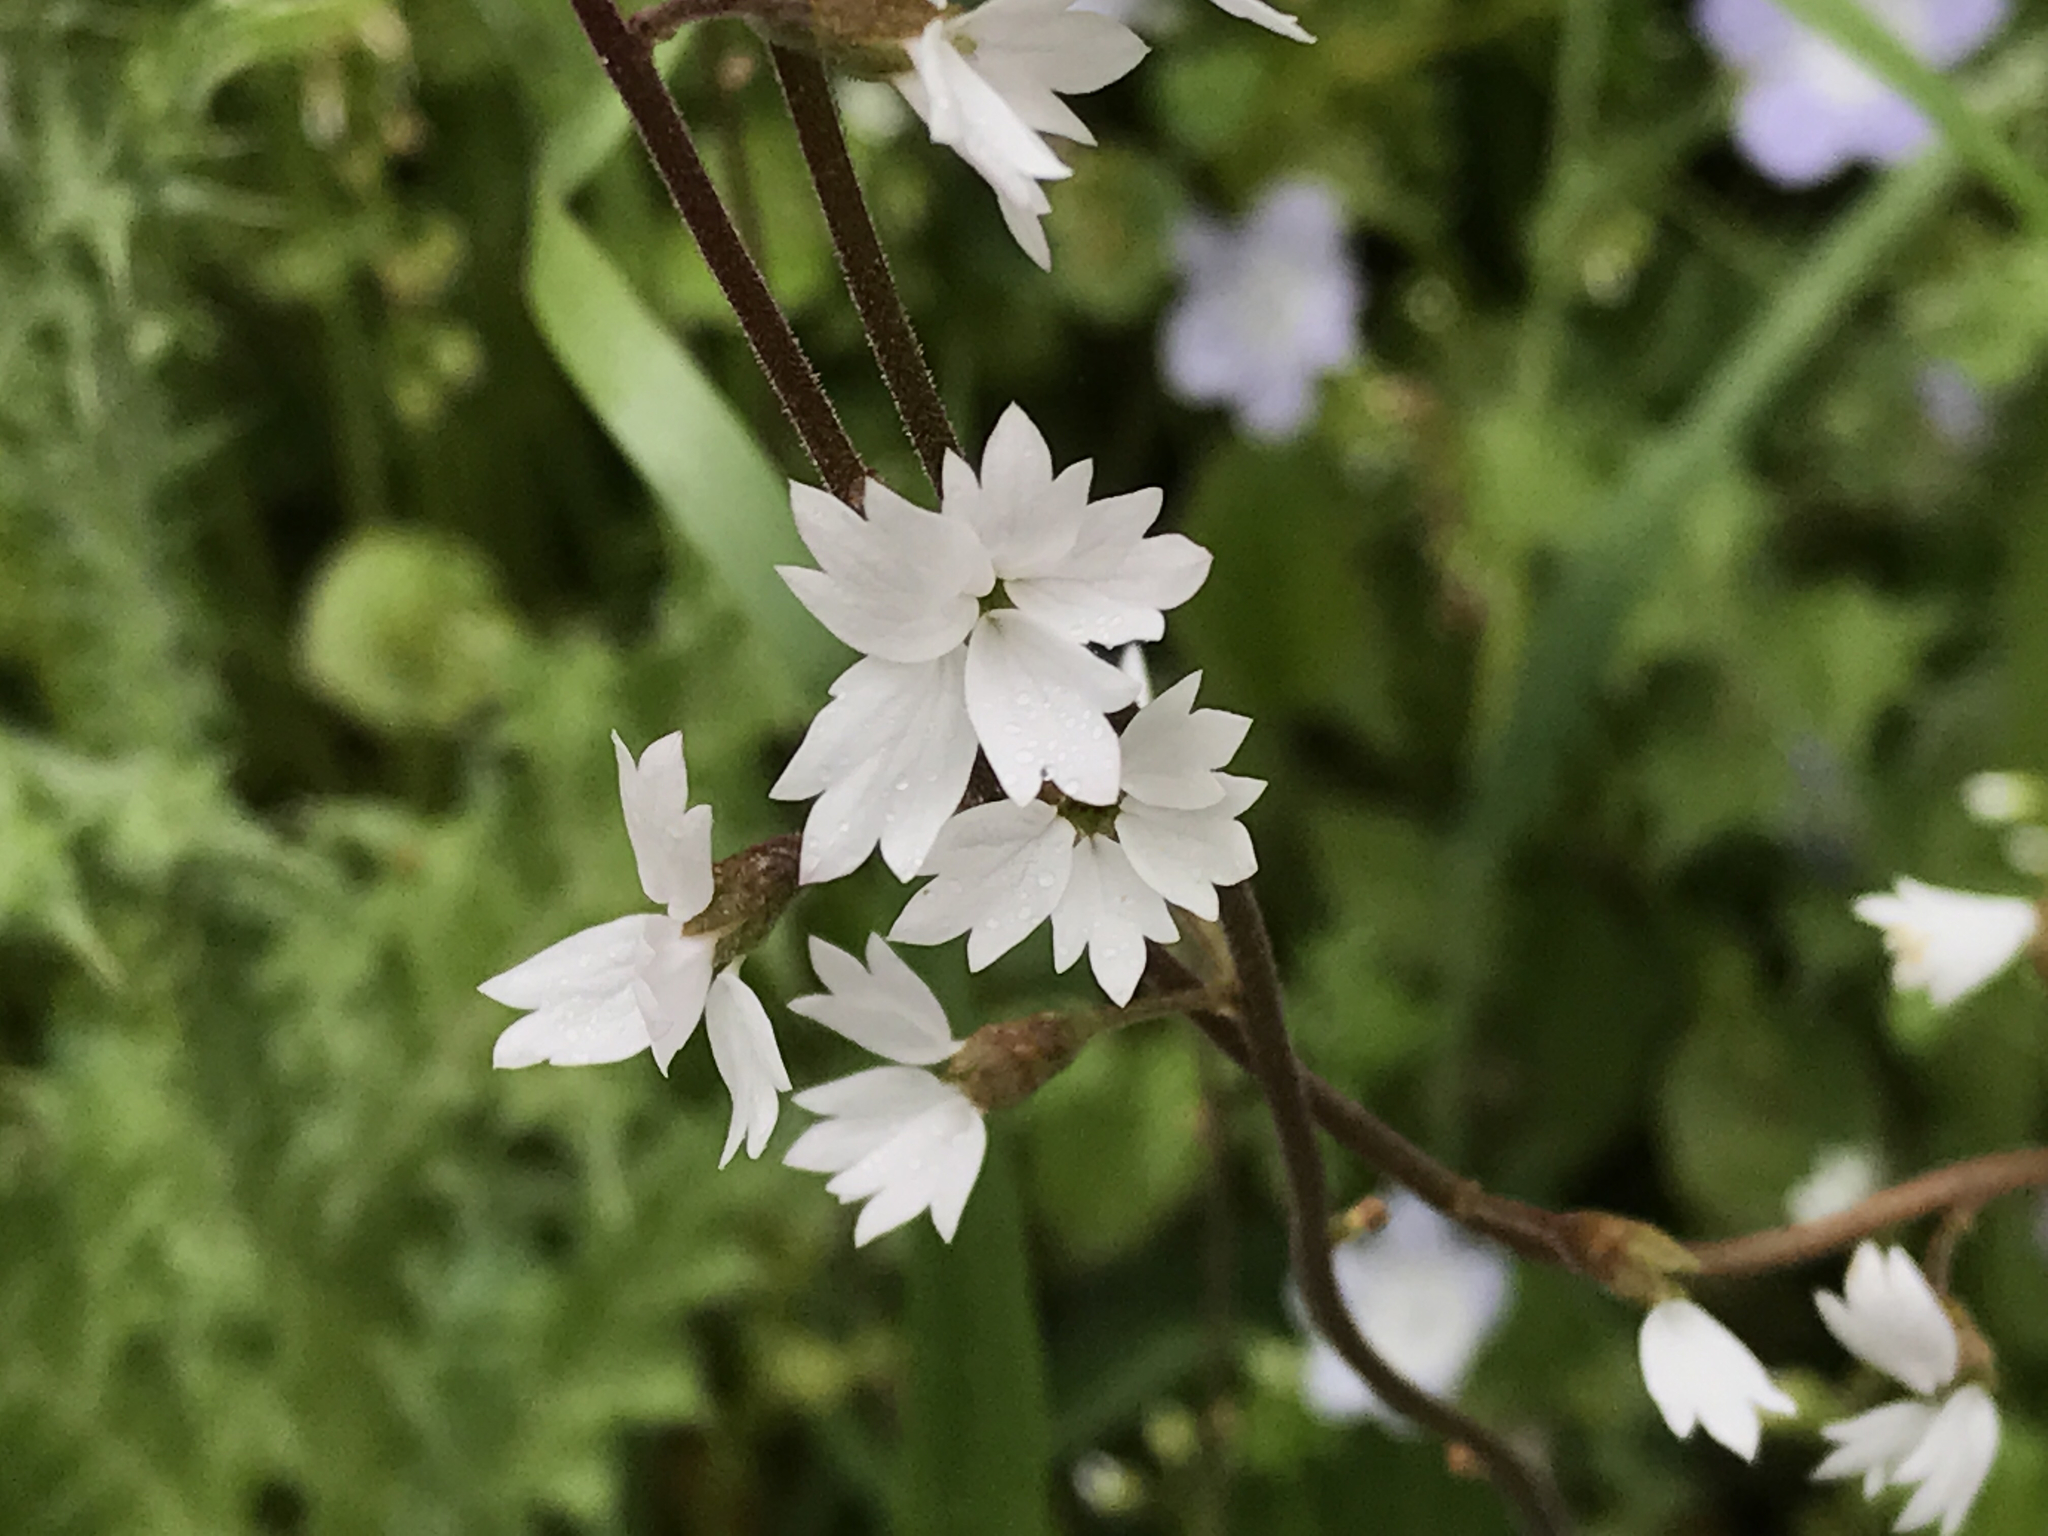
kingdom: Plantae
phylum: Tracheophyta
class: Magnoliopsida
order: Saxifragales
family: Saxifragaceae
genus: Lithophragma
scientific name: Lithophragma affine
